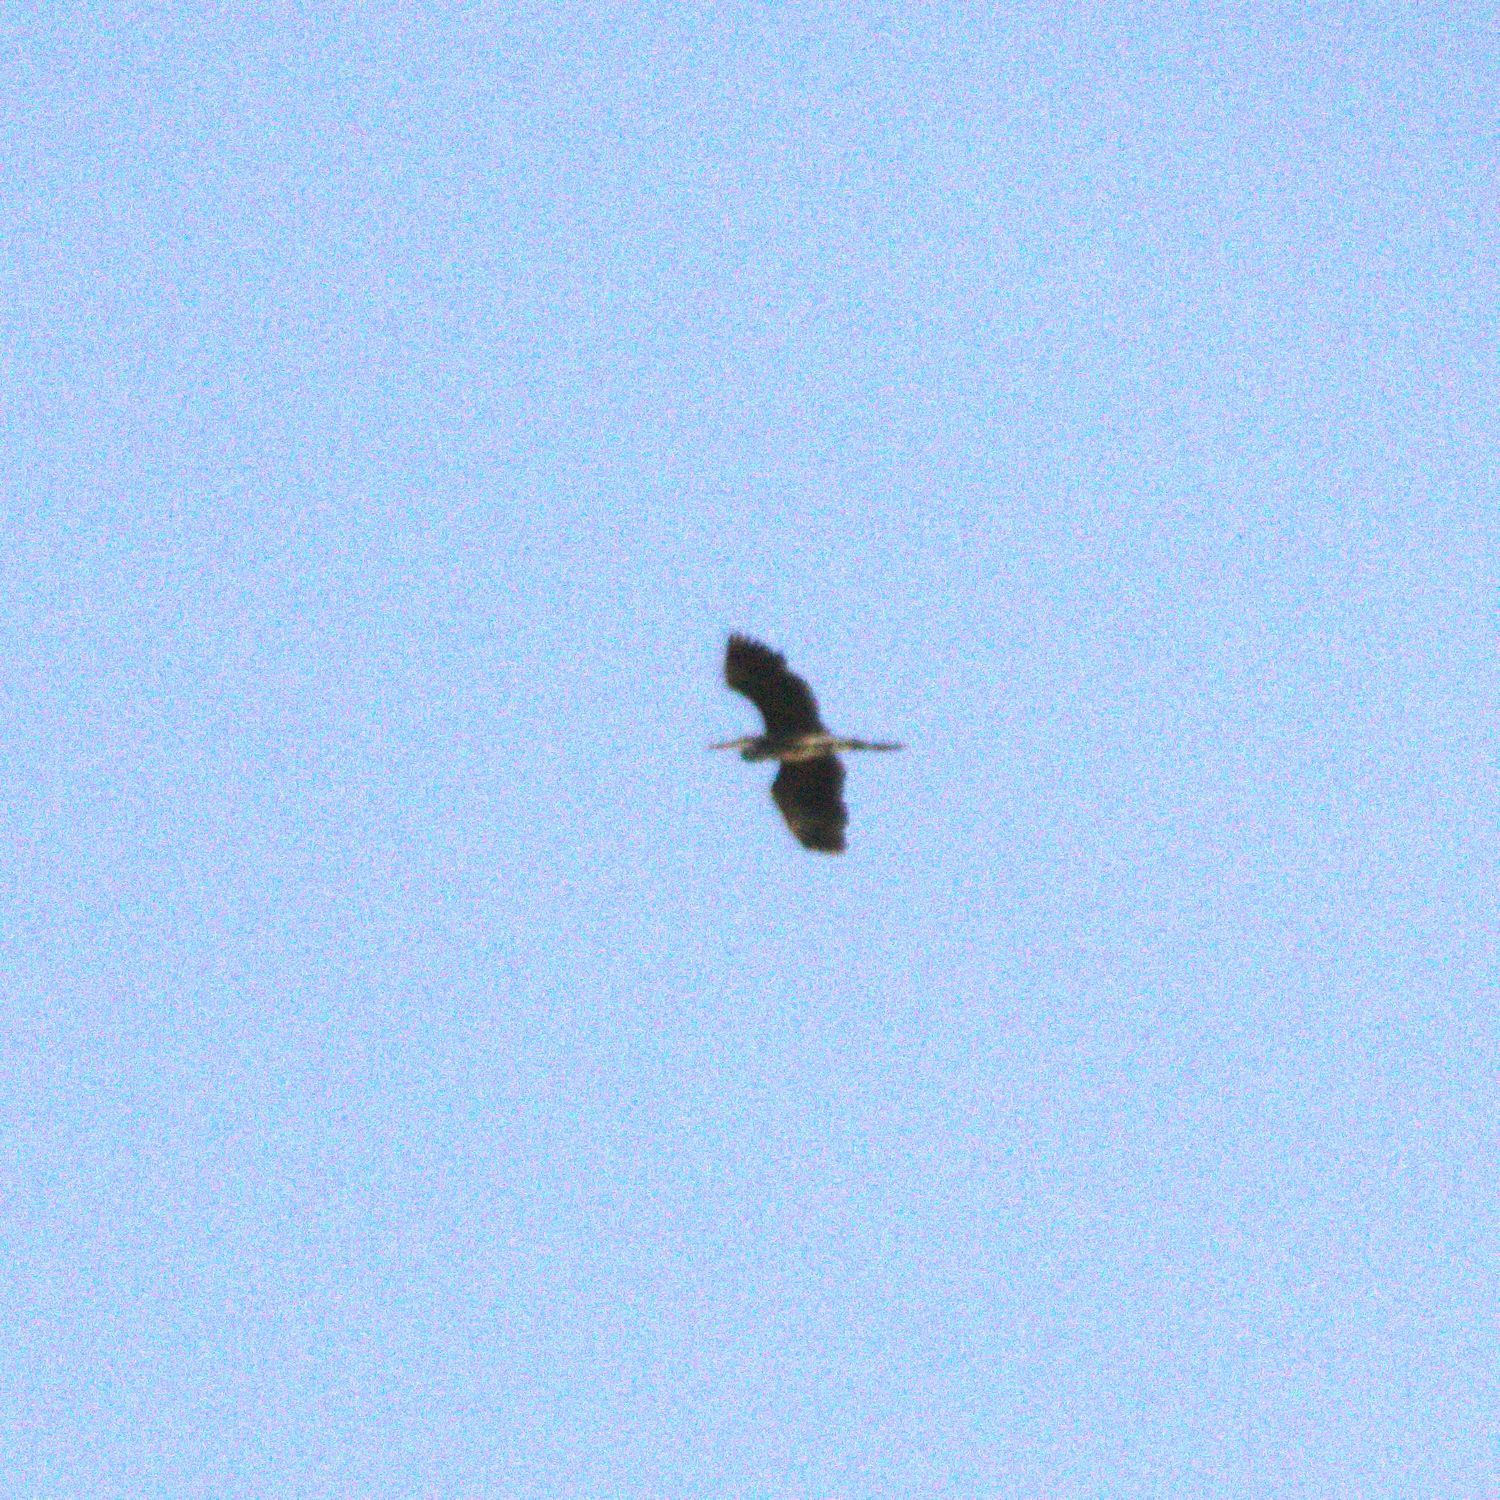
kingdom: Animalia
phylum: Chordata
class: Aves
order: Pelecaniformes
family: Ardeidae
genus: Ardea
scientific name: Ardea cinerea
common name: Grey heron
